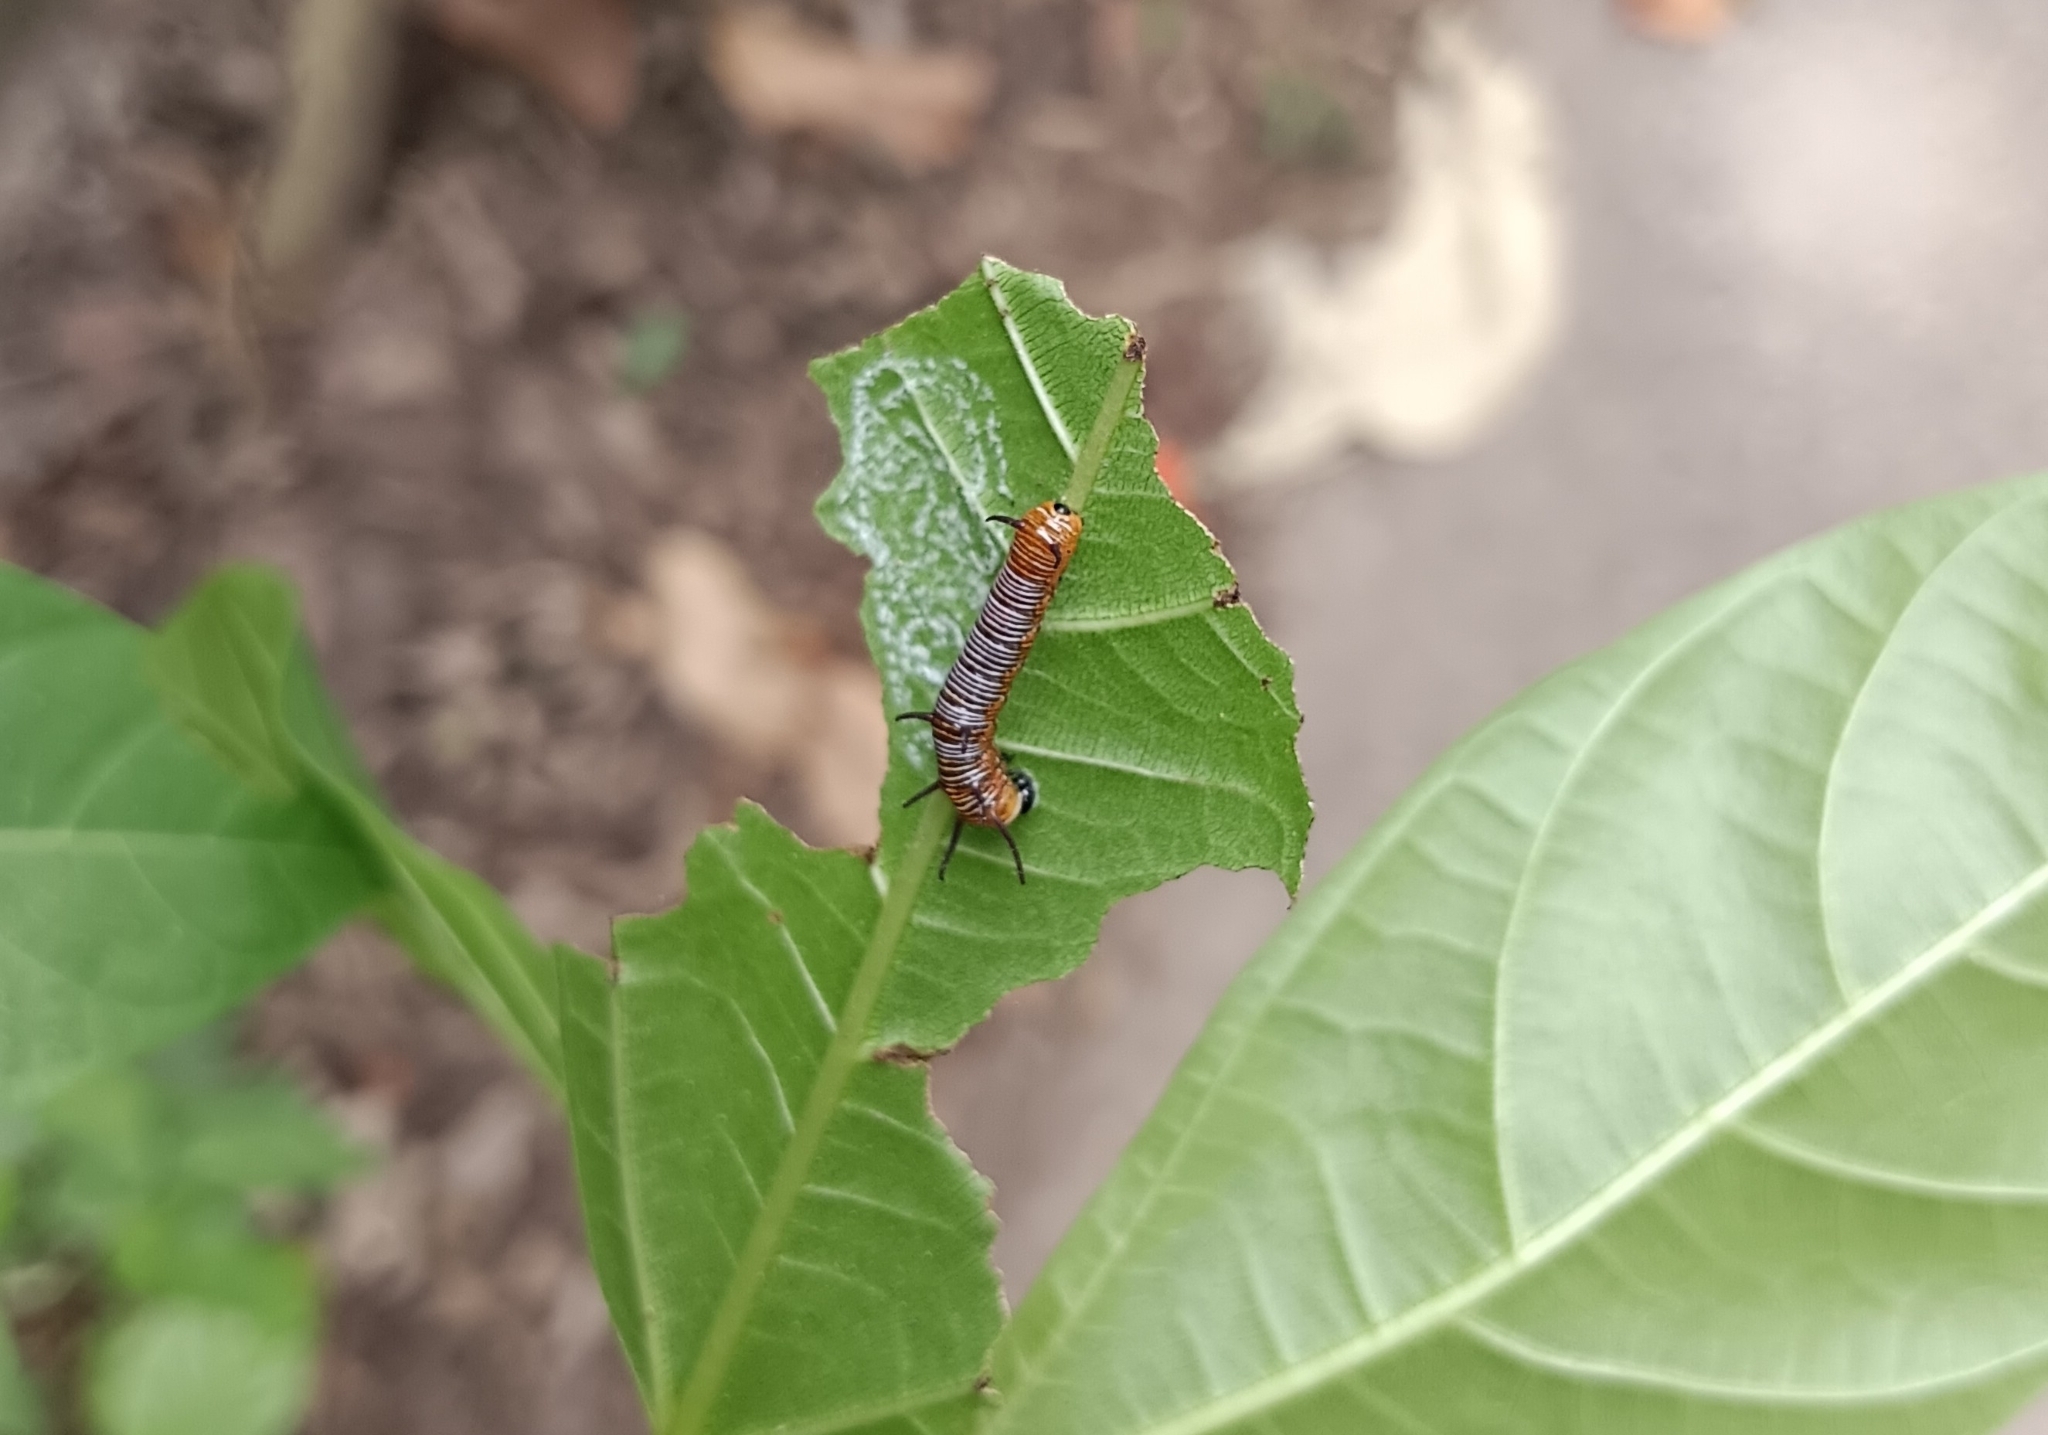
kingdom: Animalia
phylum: Arthropoda
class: Insecta
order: Lepidoptera
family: Nymphalidae
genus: Euploea
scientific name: Euploea core
